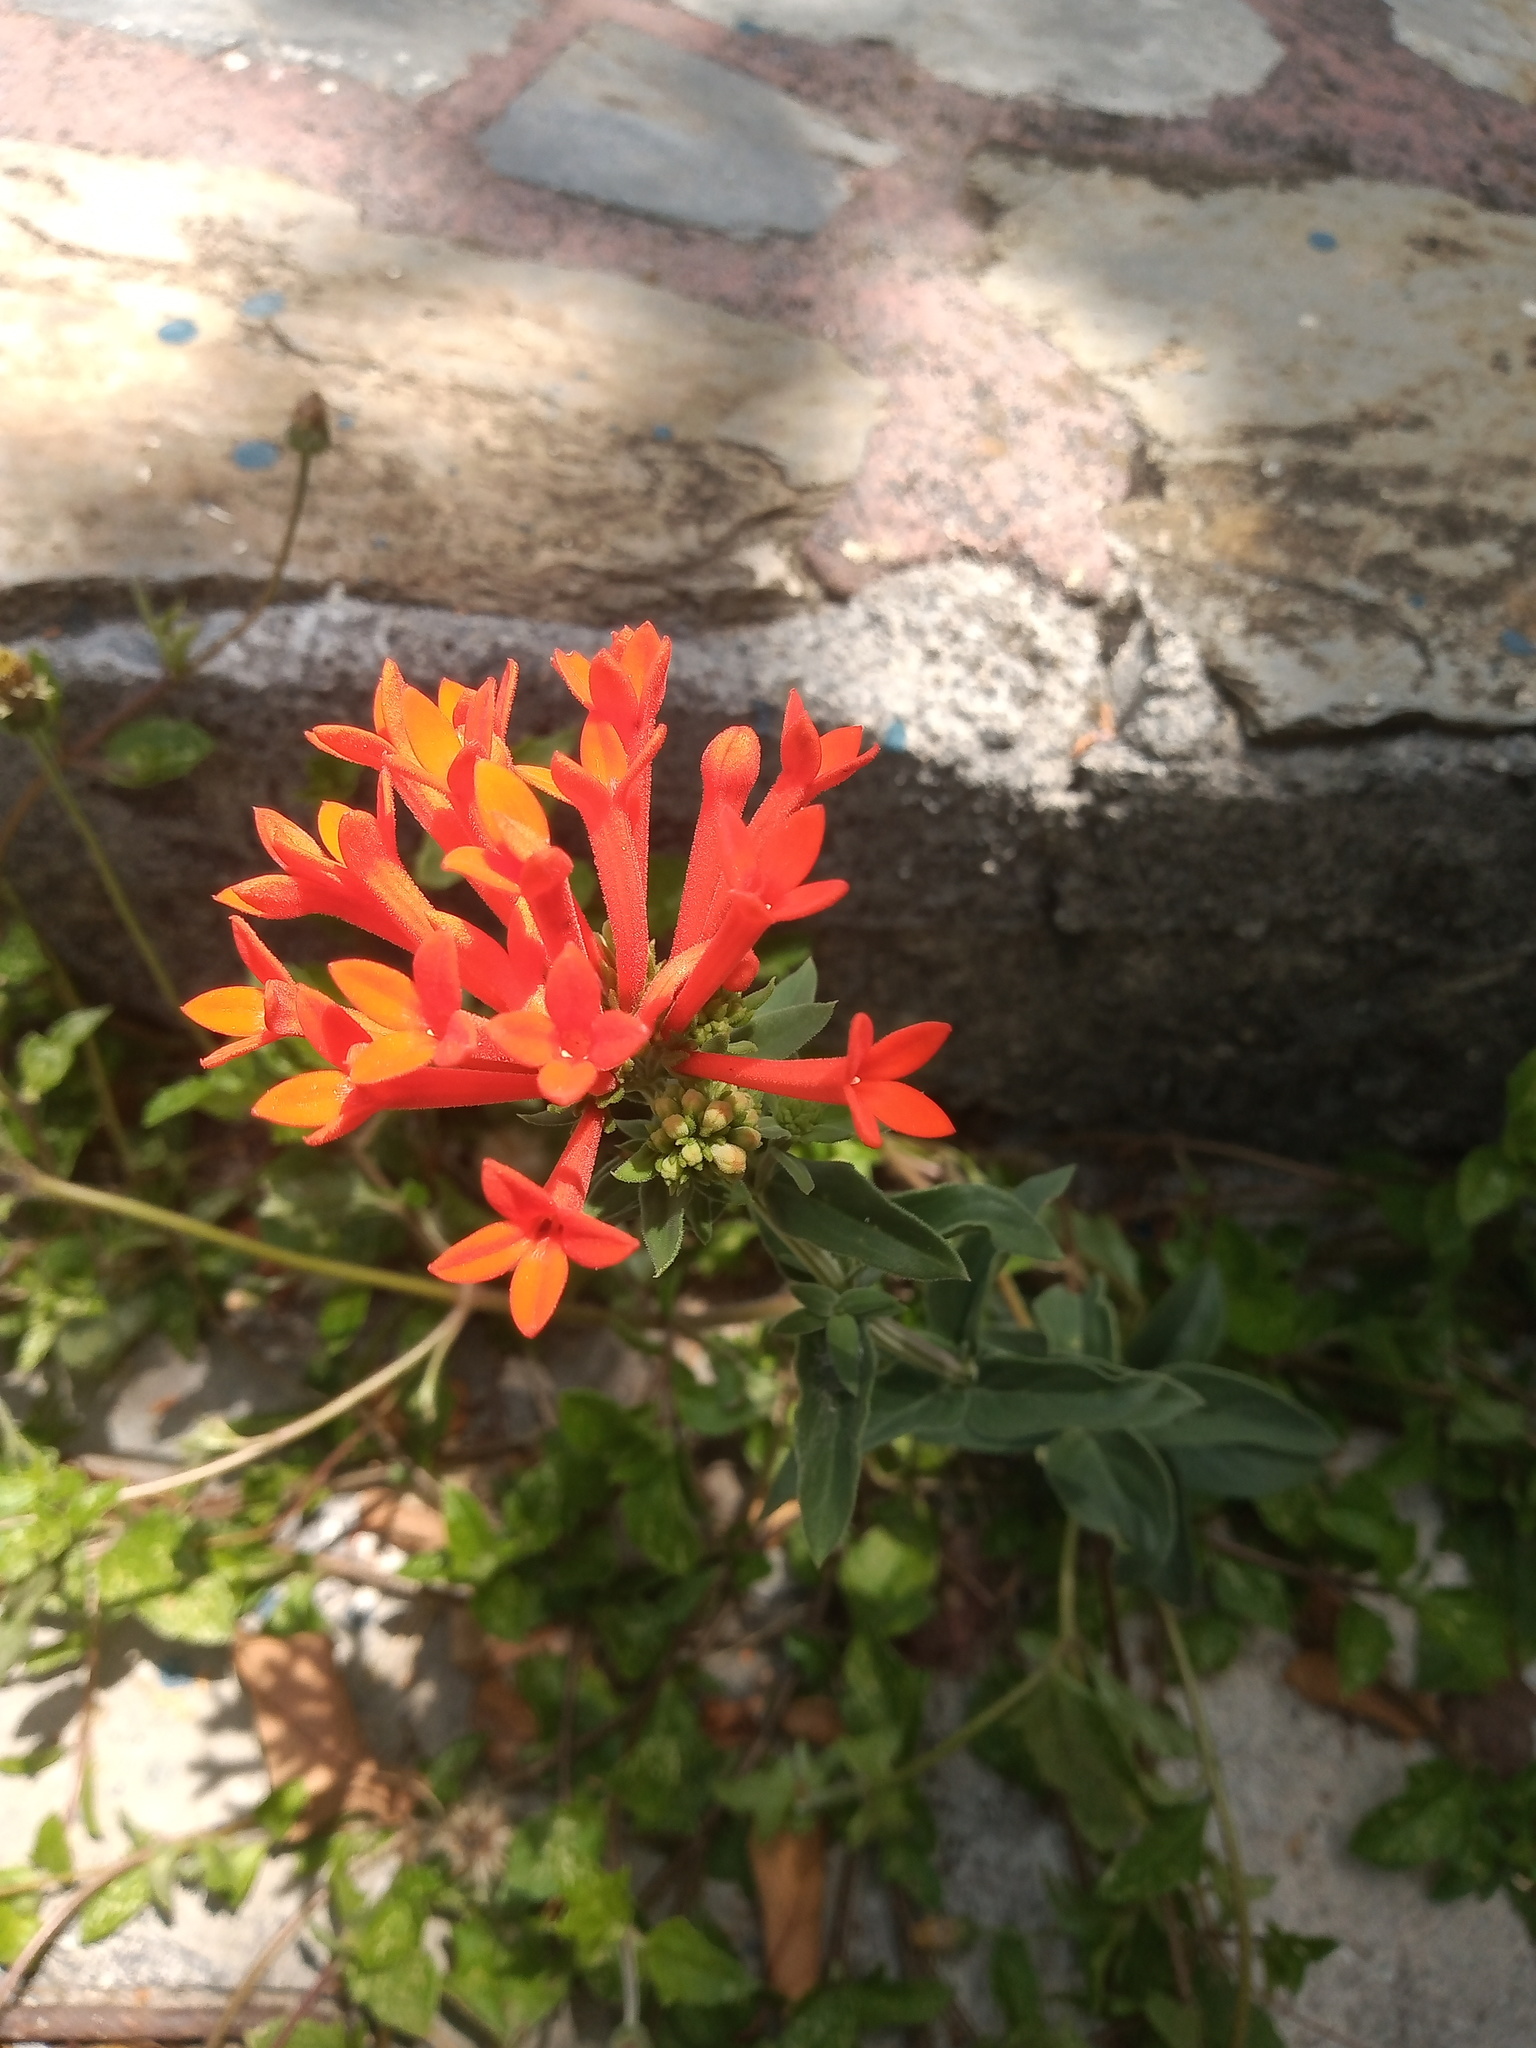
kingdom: Plantae
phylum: Tracheophyta
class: Magnoliopsida
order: Gentianales
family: Rubiaceae
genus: Bouvardia
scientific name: Bouvardia ternifolia
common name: Scarlet bouvardia
